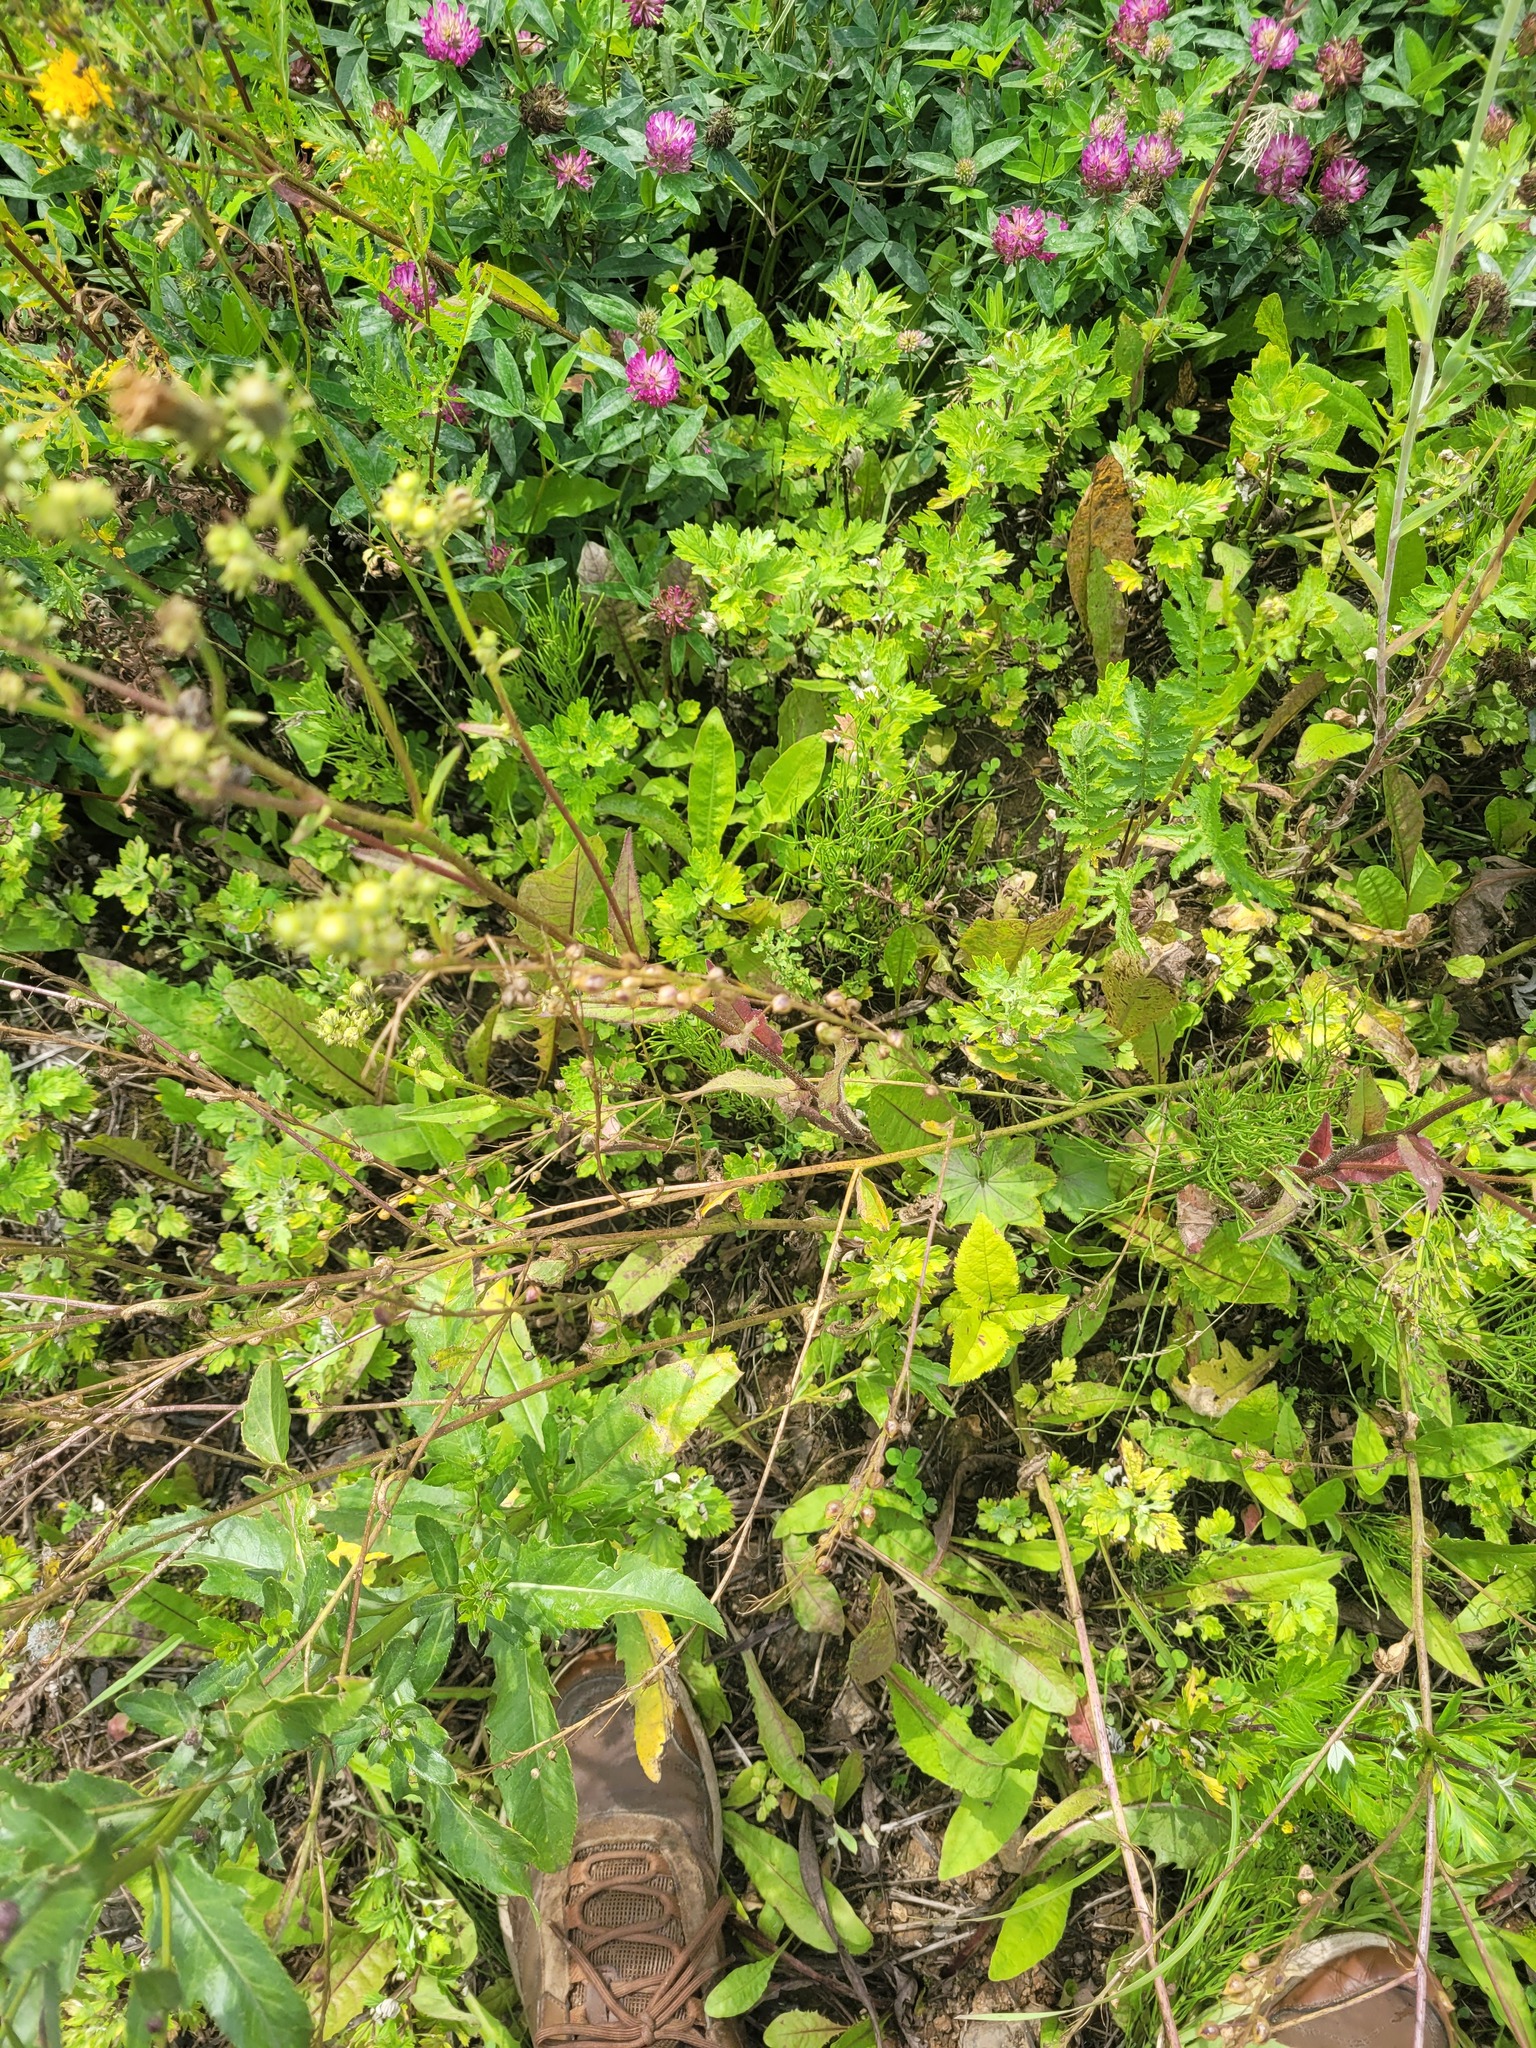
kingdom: Plantae
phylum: Tracheophyta
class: Magnoliopsida
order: Brassicales
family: Brassicaceae
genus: Bunias
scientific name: Bunias orientalis
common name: Warty-cabbage
